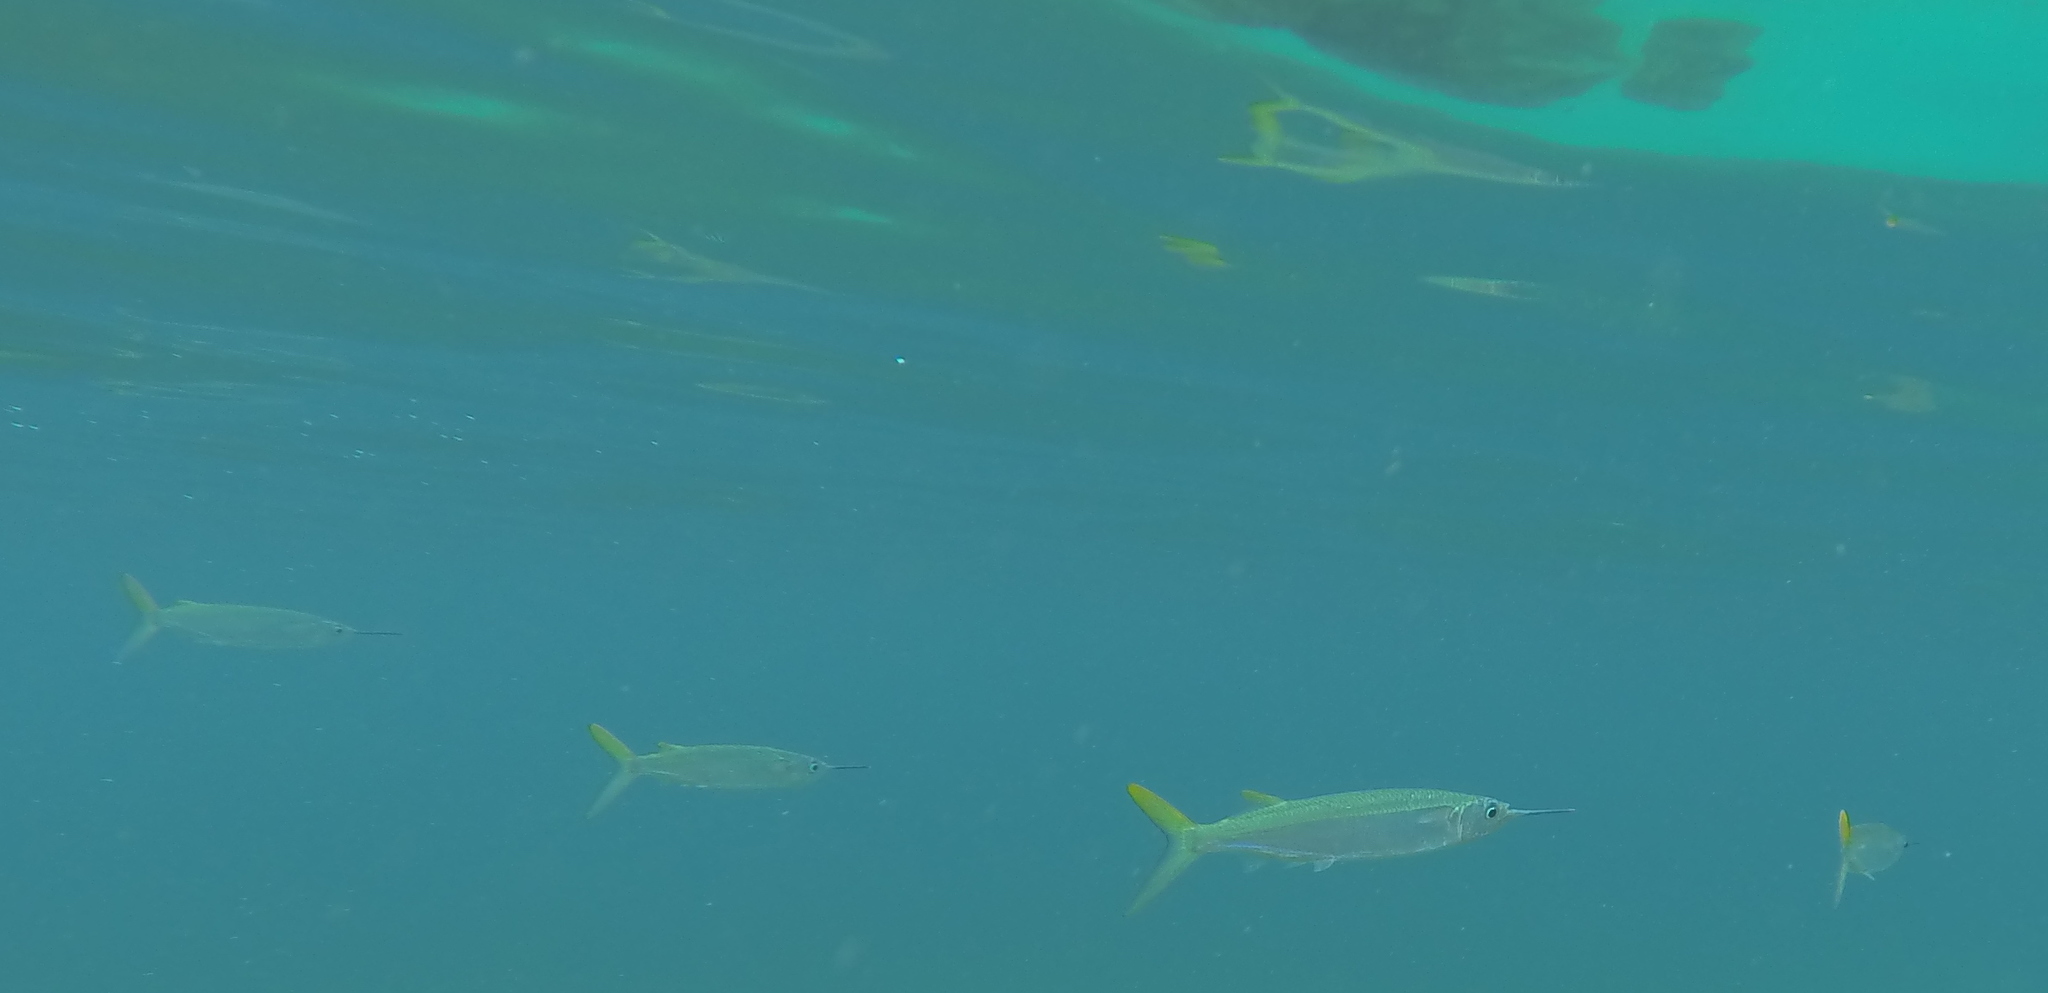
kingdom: Animalia
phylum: Chordata
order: Beloniformes
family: Hemiramphidae
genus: Hemiramphus
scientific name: Hemiramphus brasiliensis
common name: Ballyhoo
